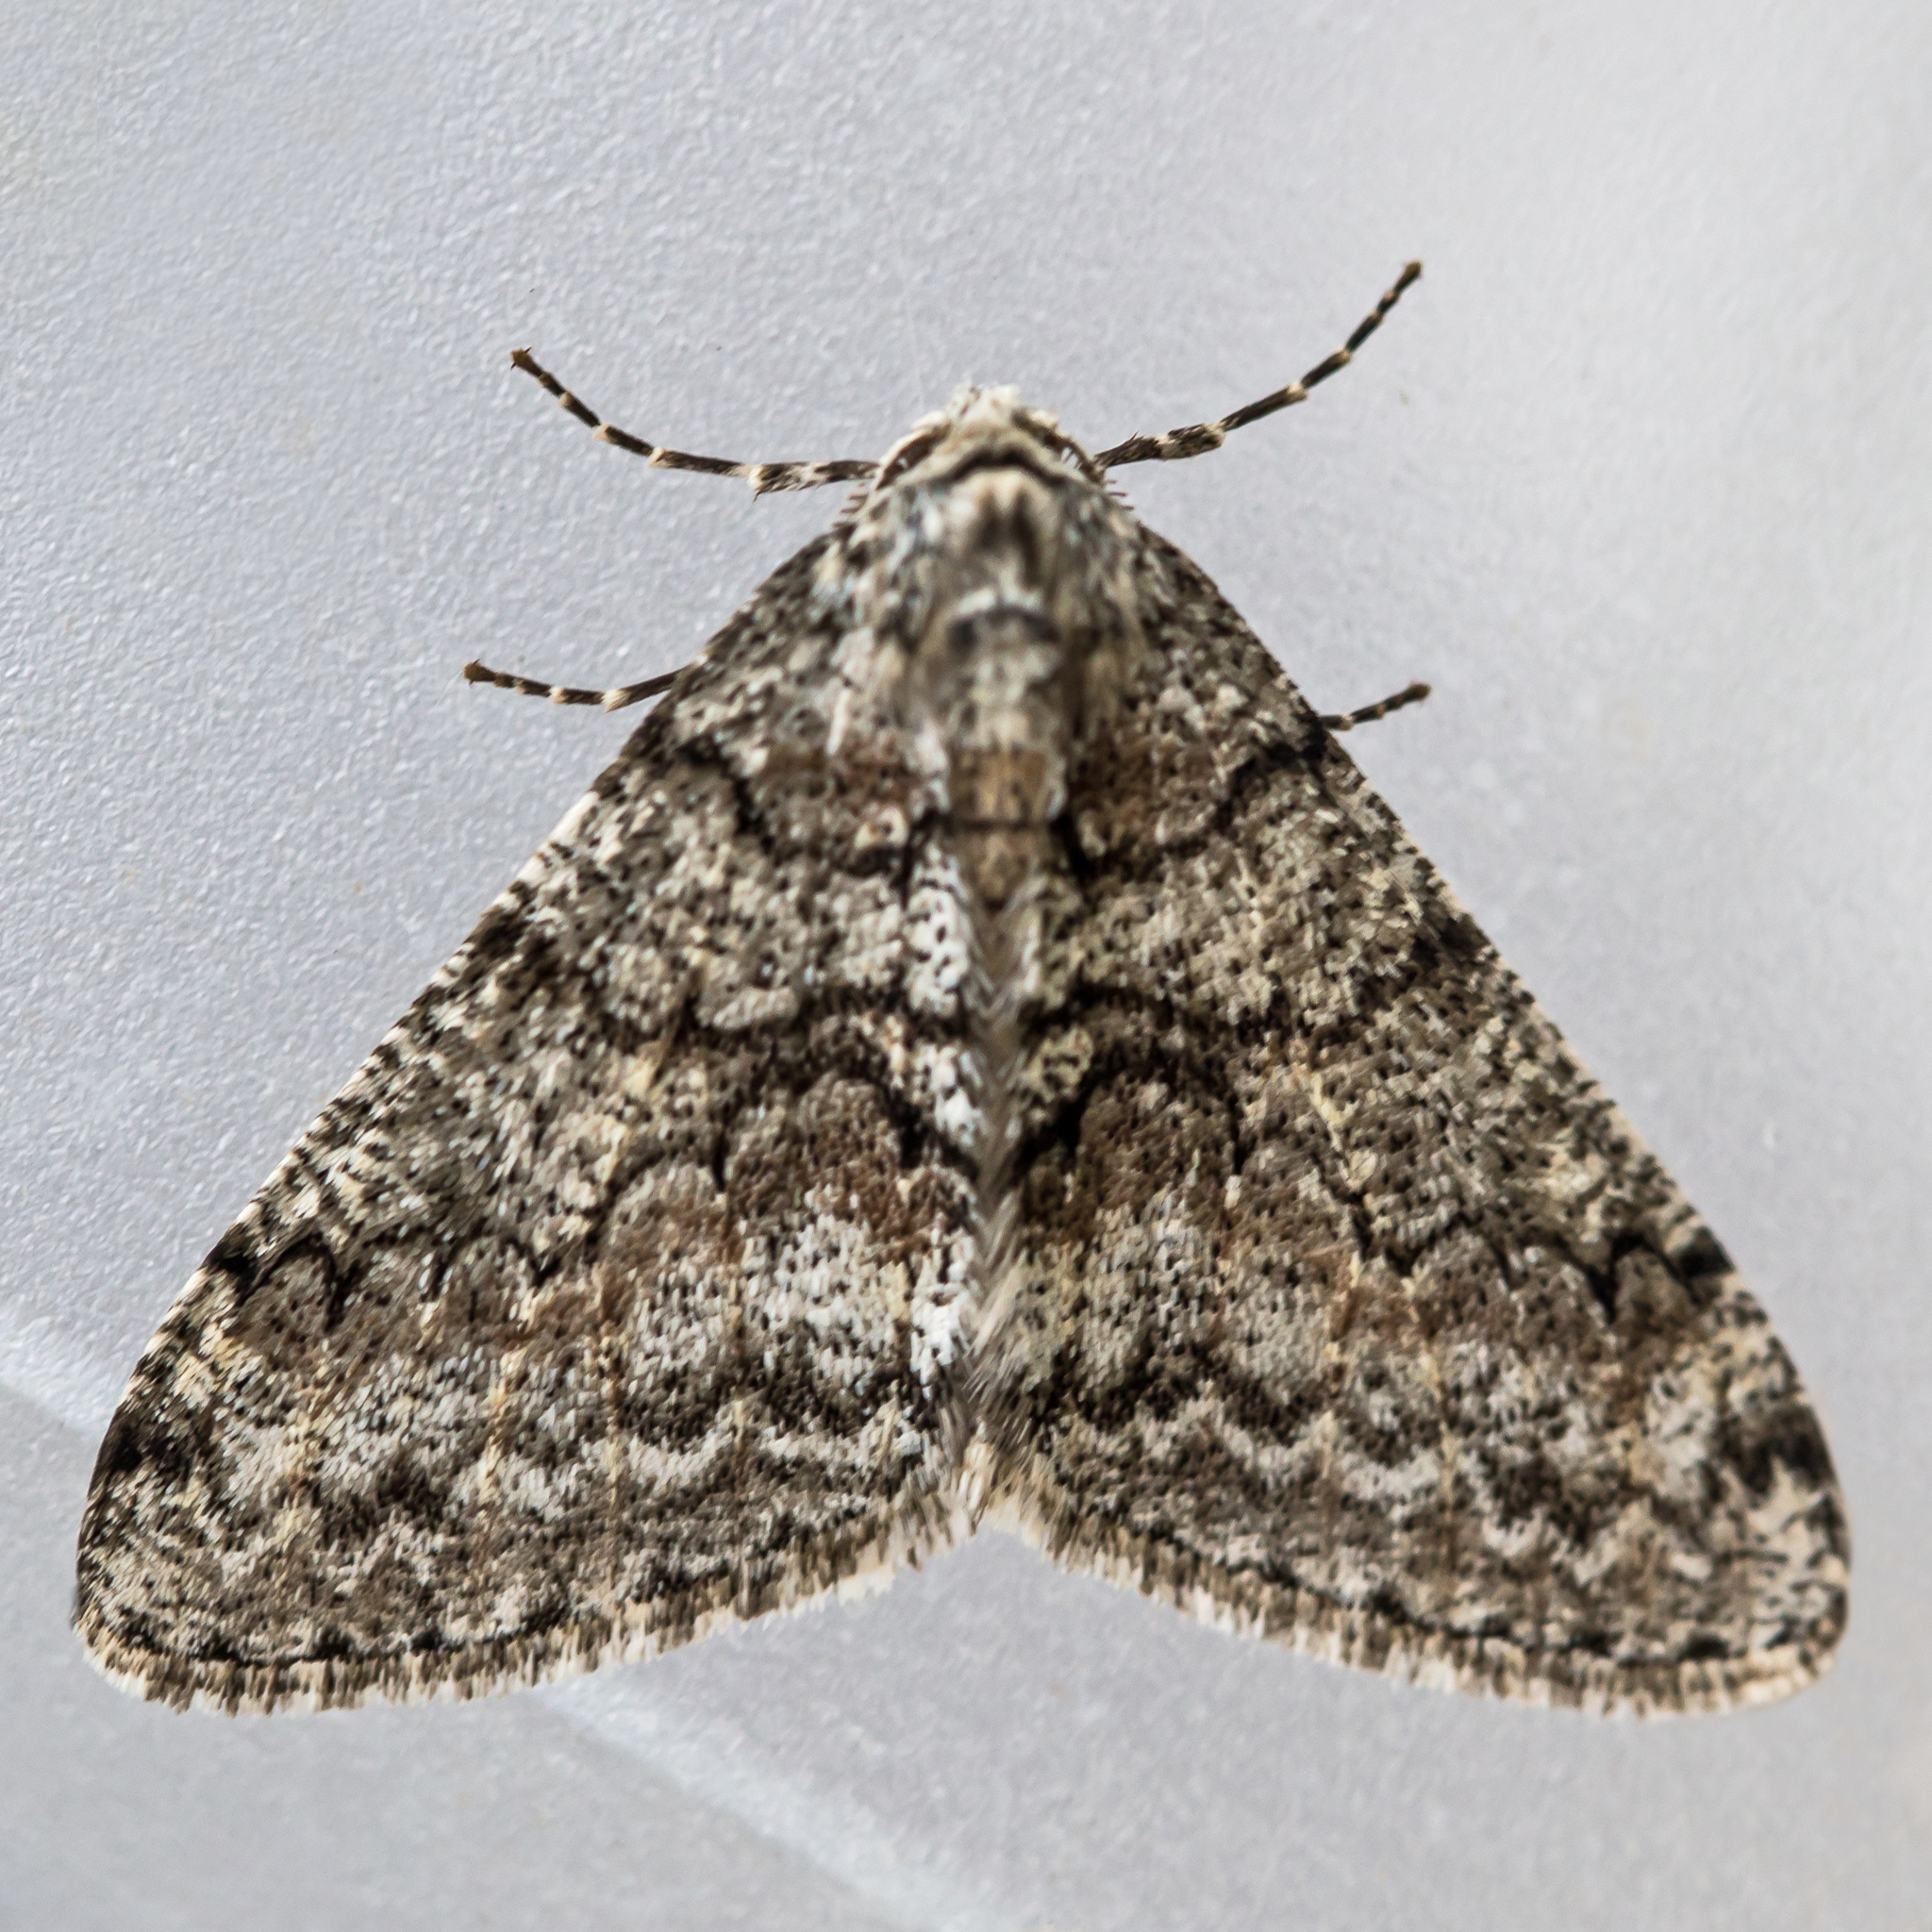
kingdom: Animalia
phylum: Arthropoda
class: Insecta
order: Lepidoptera
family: Geometridae
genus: Phigalia
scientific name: Phigalia denticulata
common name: Toothed phigalia
